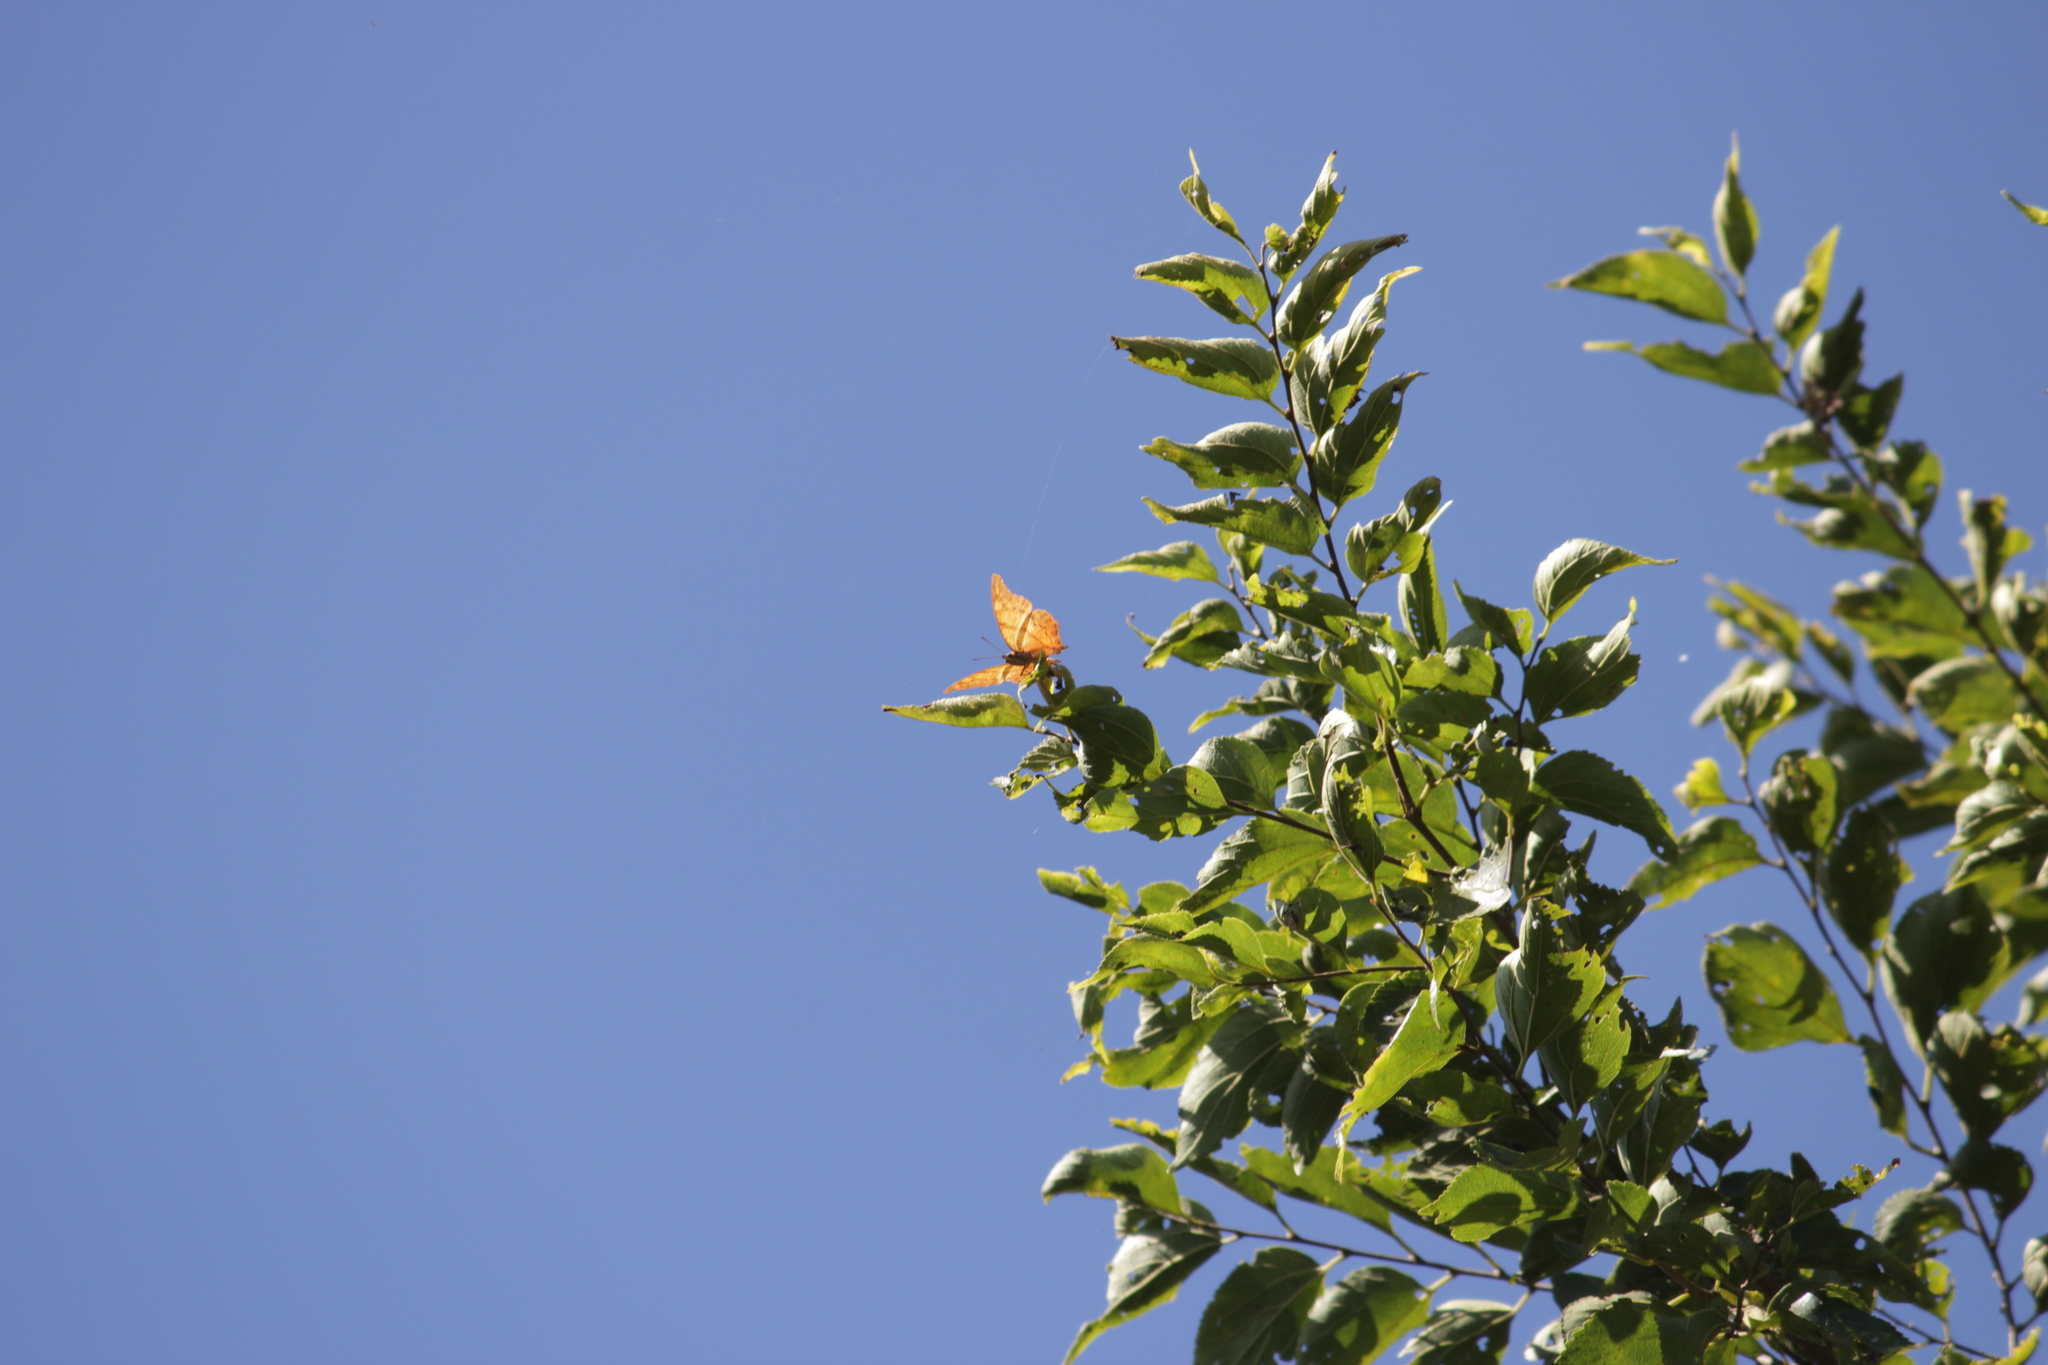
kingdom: Animalia
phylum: Arthropoda
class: Insecta
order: Lepidoptera
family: Nymphalidae
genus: Polyura
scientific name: Polyura
